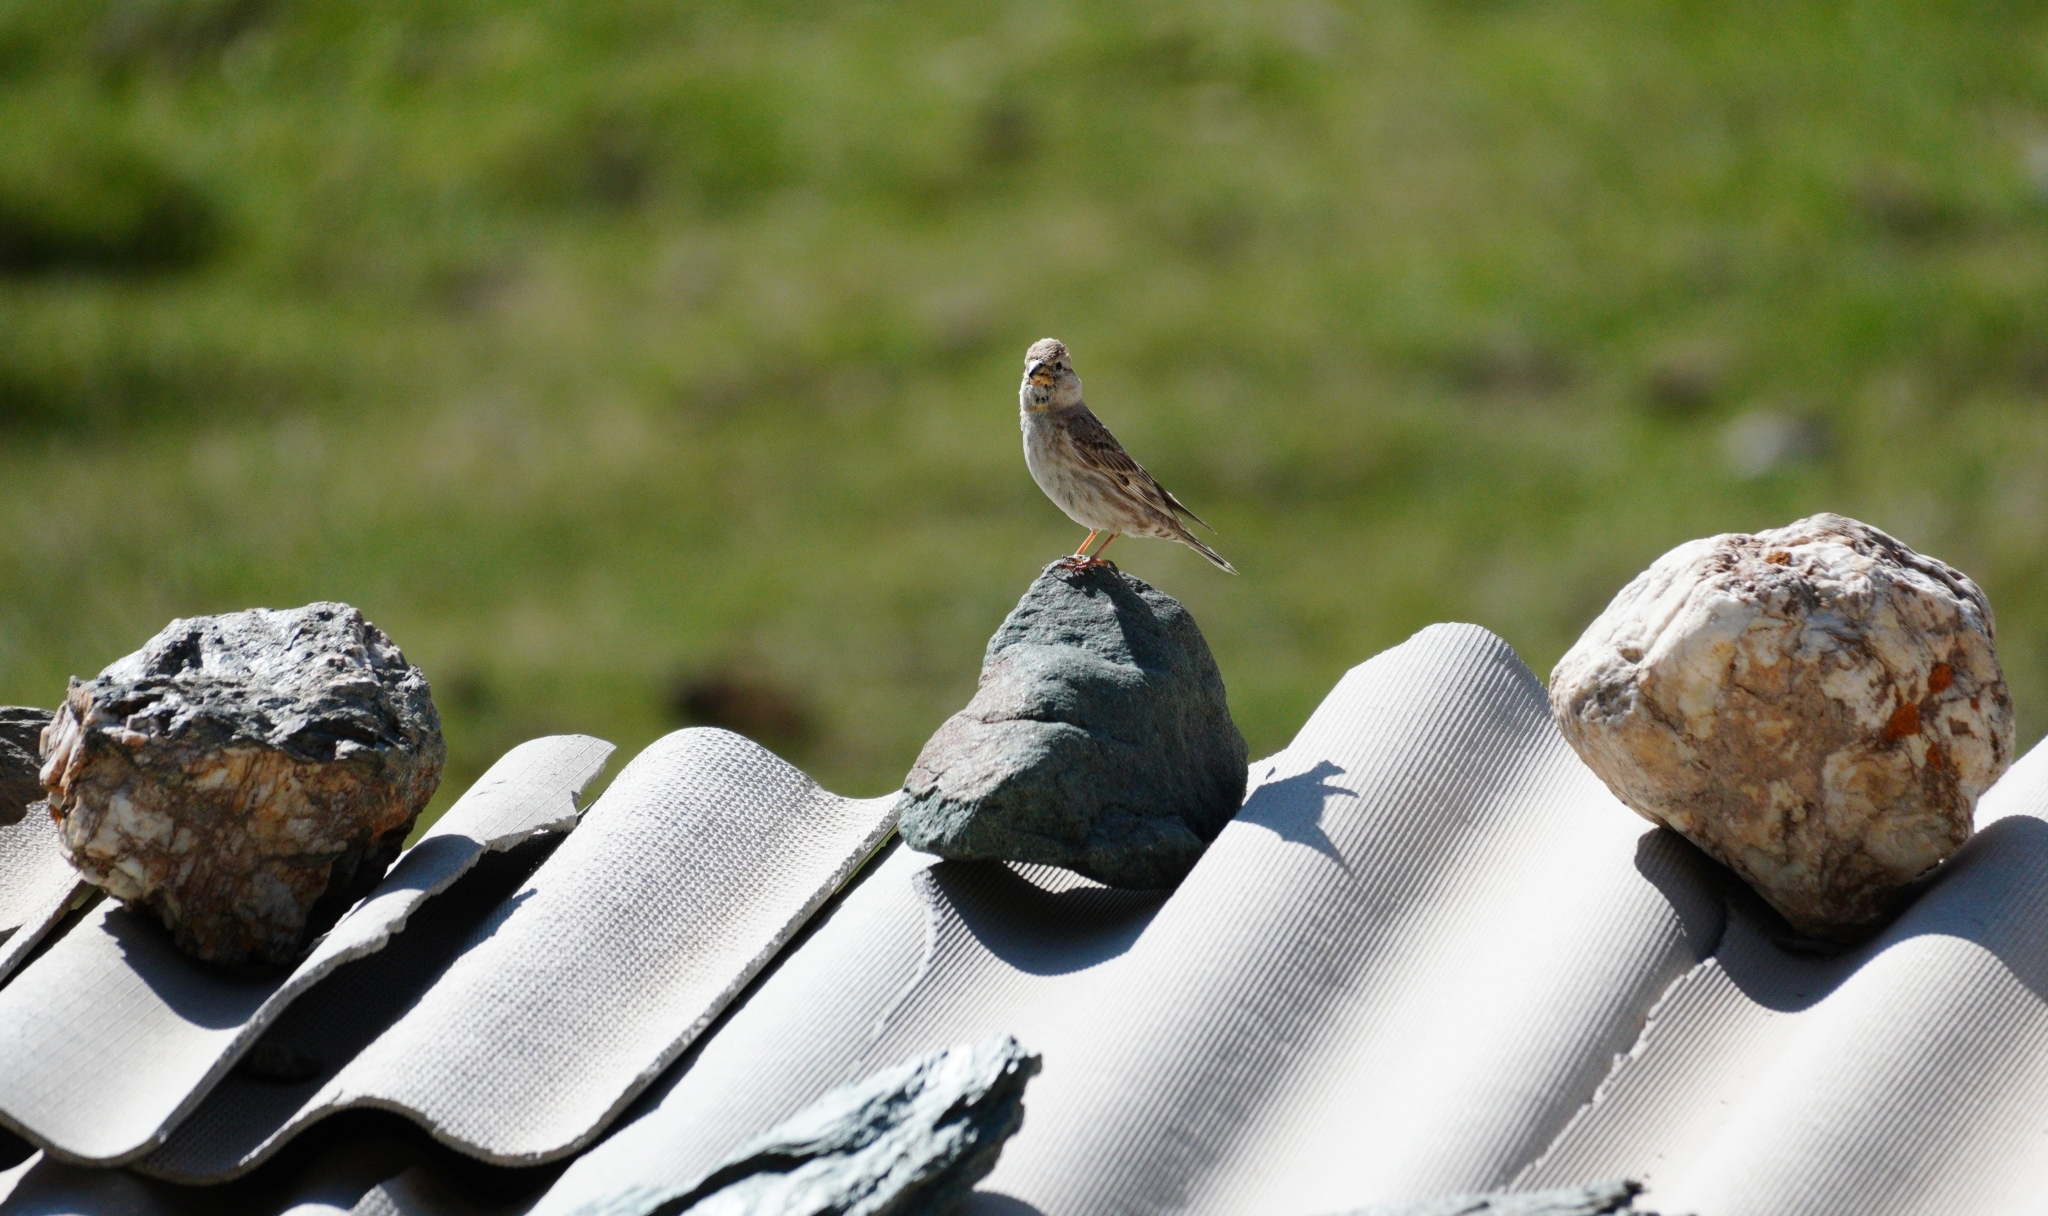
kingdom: Animalia
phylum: Chordata
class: Aves
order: Passeriformes
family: Passeridae
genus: Petronia
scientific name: Petronia petronia
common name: Rock sparrow
